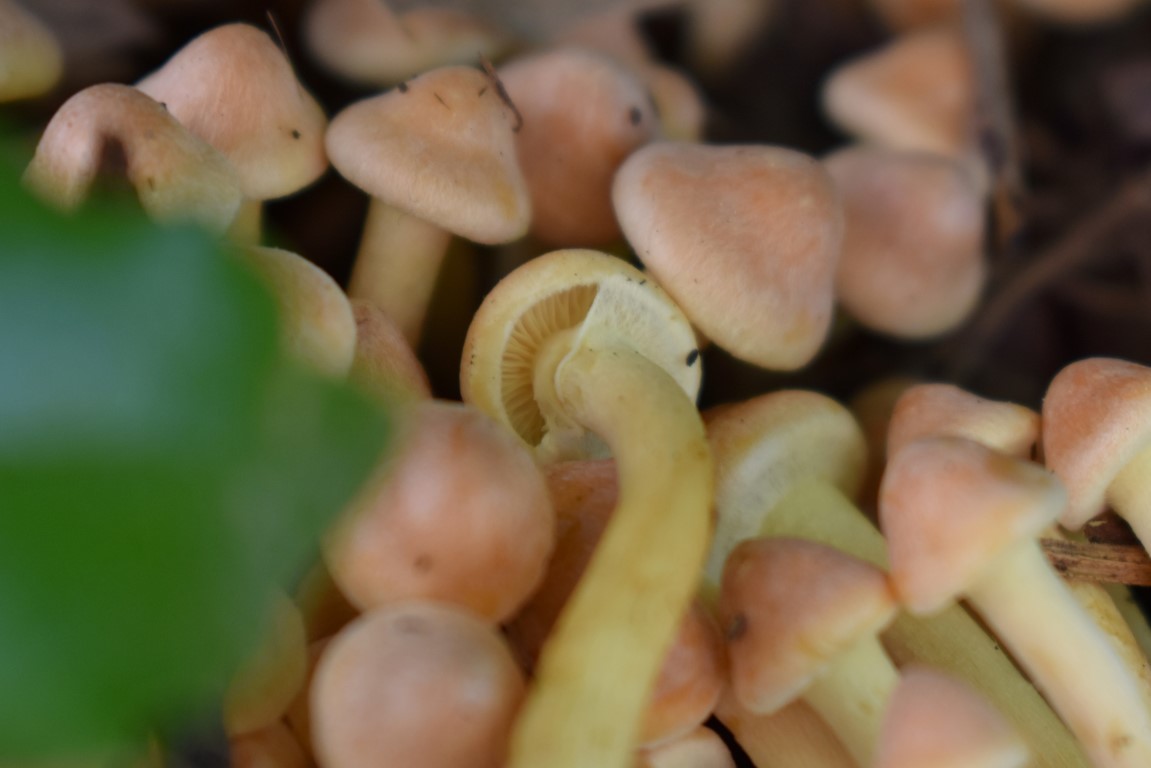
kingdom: Fungi
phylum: Basidiomycota
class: Agaricomycetes
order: Agaricales
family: Strophariaceae
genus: Hypholoma
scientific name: Hypholoma fasciculare
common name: Sulphur tuft
